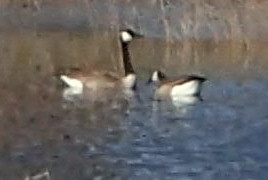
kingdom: Animalia
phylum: Chordata
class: Aves
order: Anseriformes
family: Anatidae
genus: Branta
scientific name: Branta canadensis
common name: Canada goose
